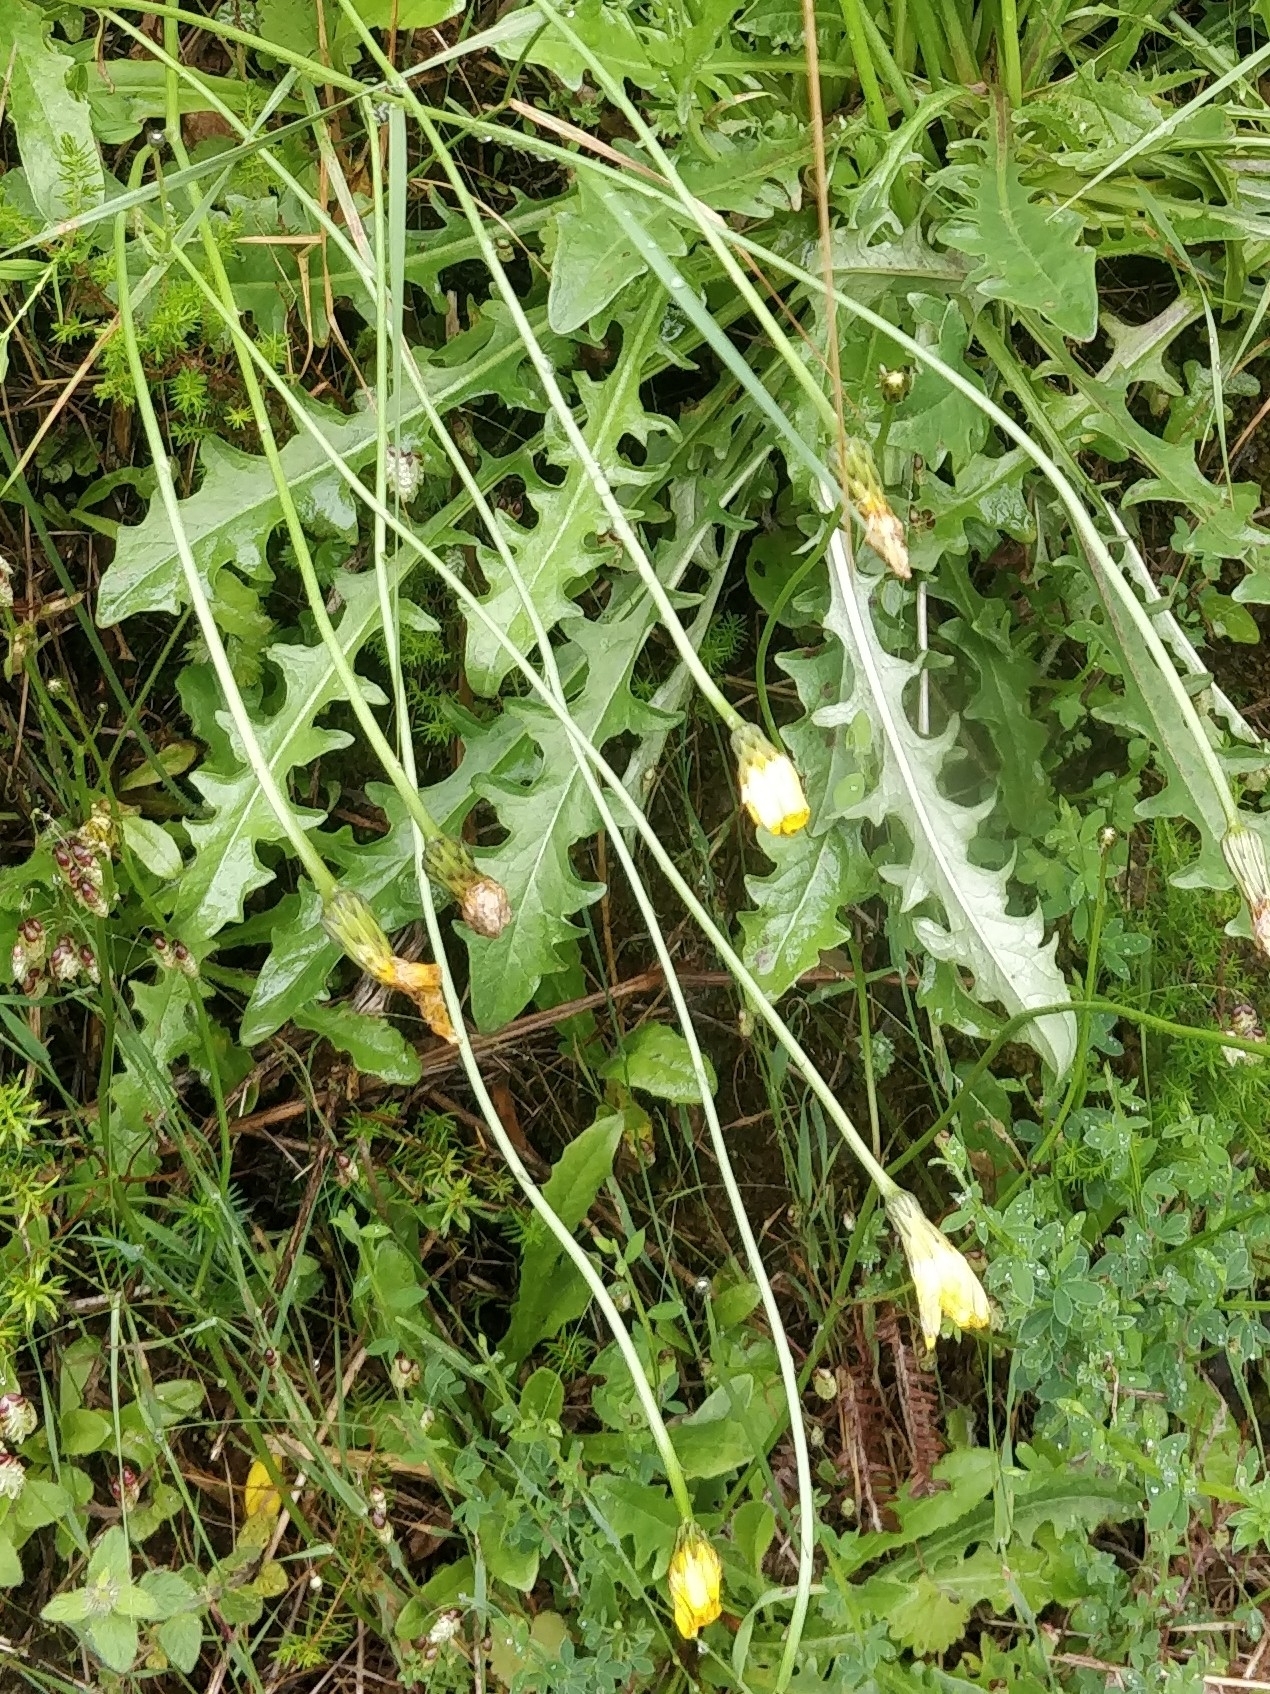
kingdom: Plantae
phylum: Tracheophyta
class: Magnoliopsida
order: Asterales
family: Asteraceae
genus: Hypochaeris
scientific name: Hypochaeris radicata
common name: Flatweed
